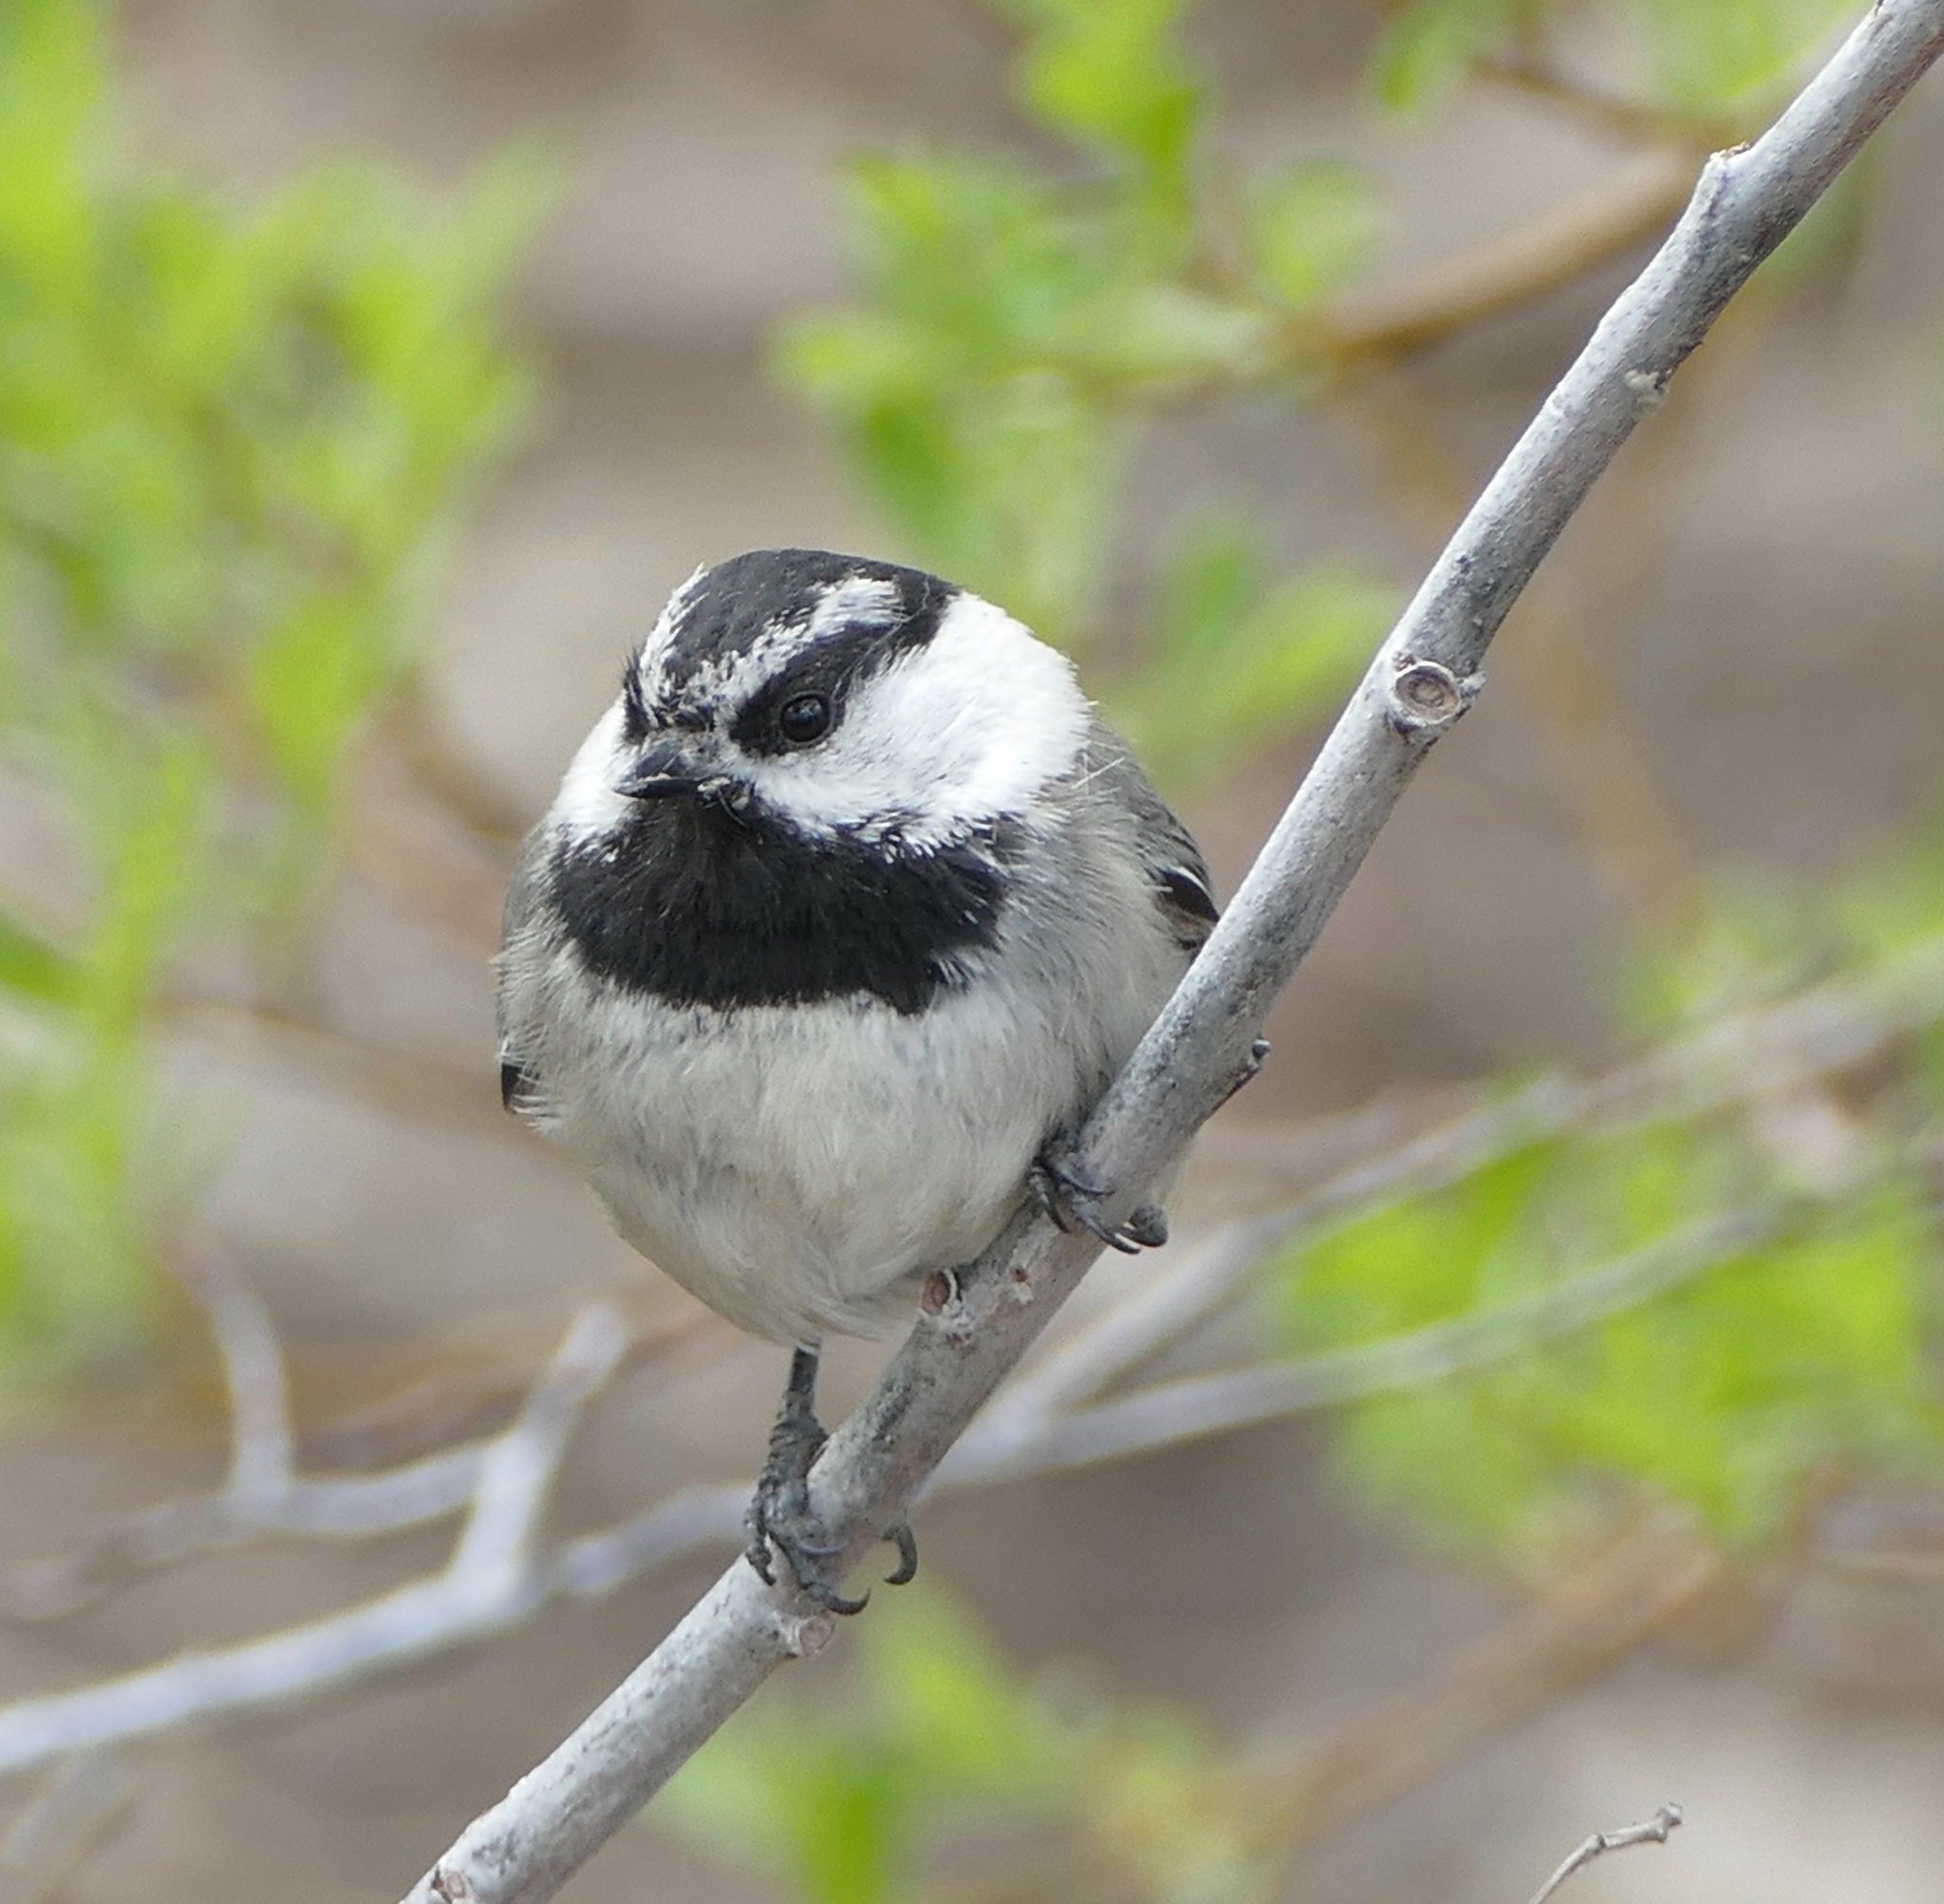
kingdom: Animalia
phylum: Chordata
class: Aves
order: Passeriformes
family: Paridae
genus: Poecile
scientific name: Poecile gambeli
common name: Mountain chickadee
